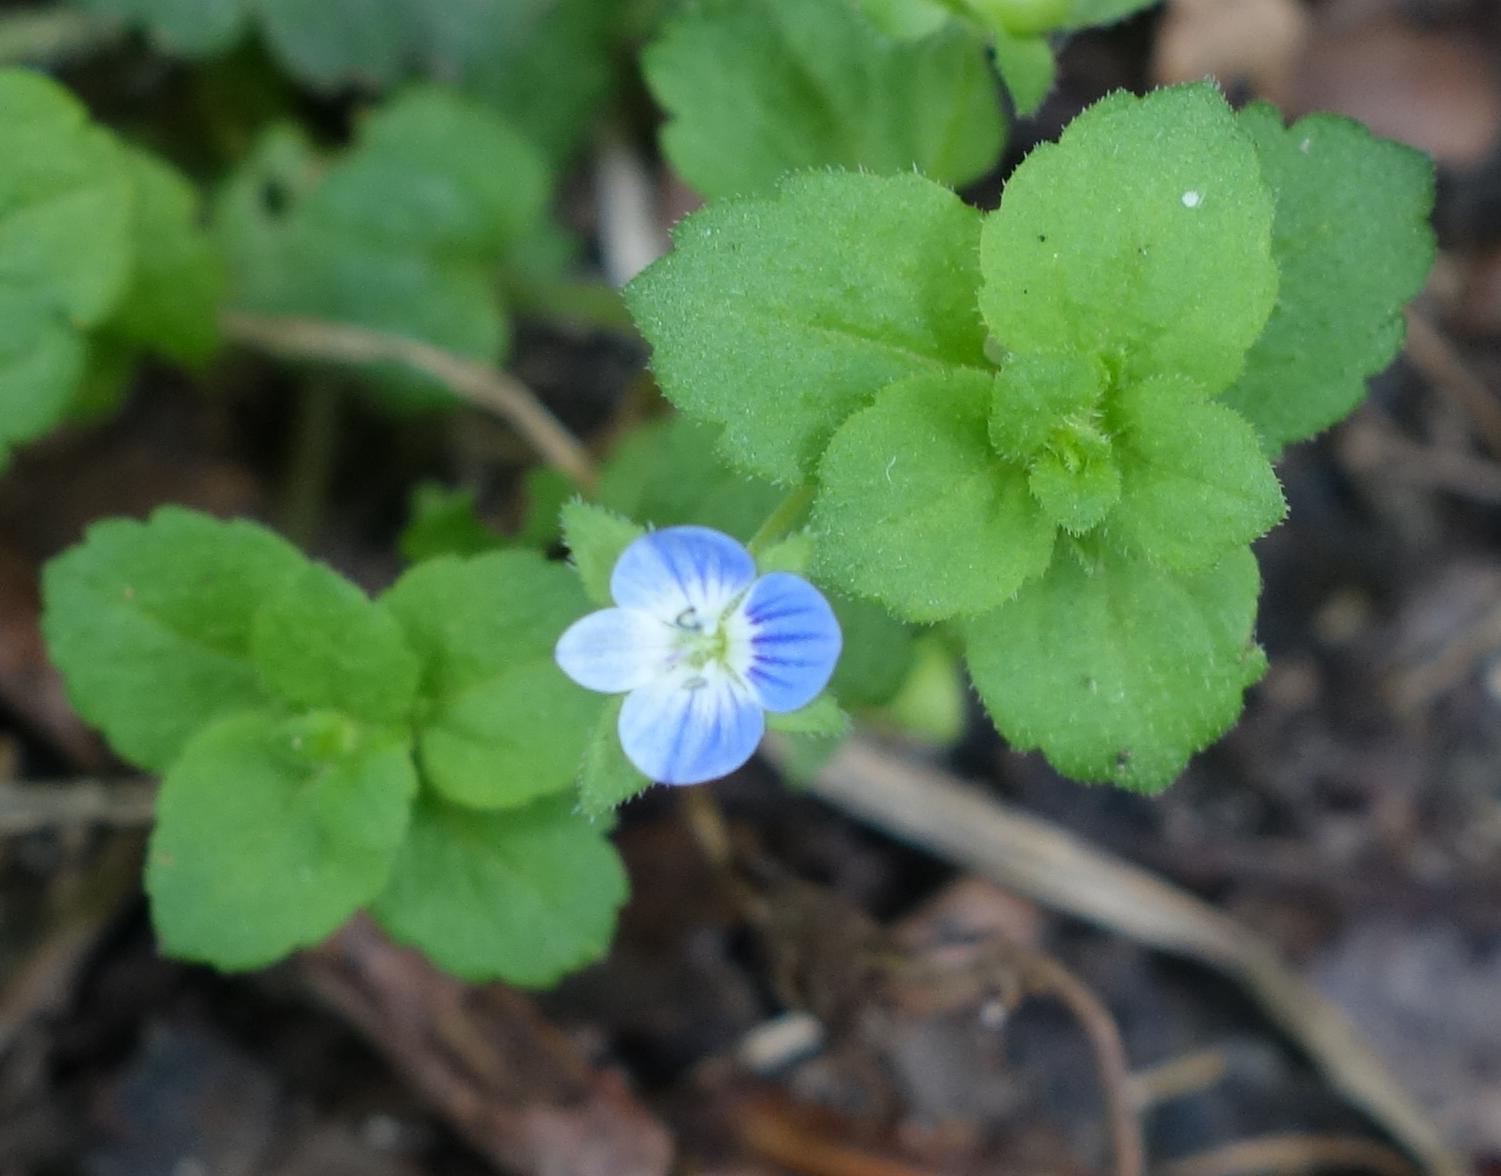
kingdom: Plantae
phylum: Tracheophyta
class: Magnoliopsida
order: Lamiales
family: Plantaginaceae
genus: Veronica
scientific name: Veronica persica
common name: Common field-speedwell
